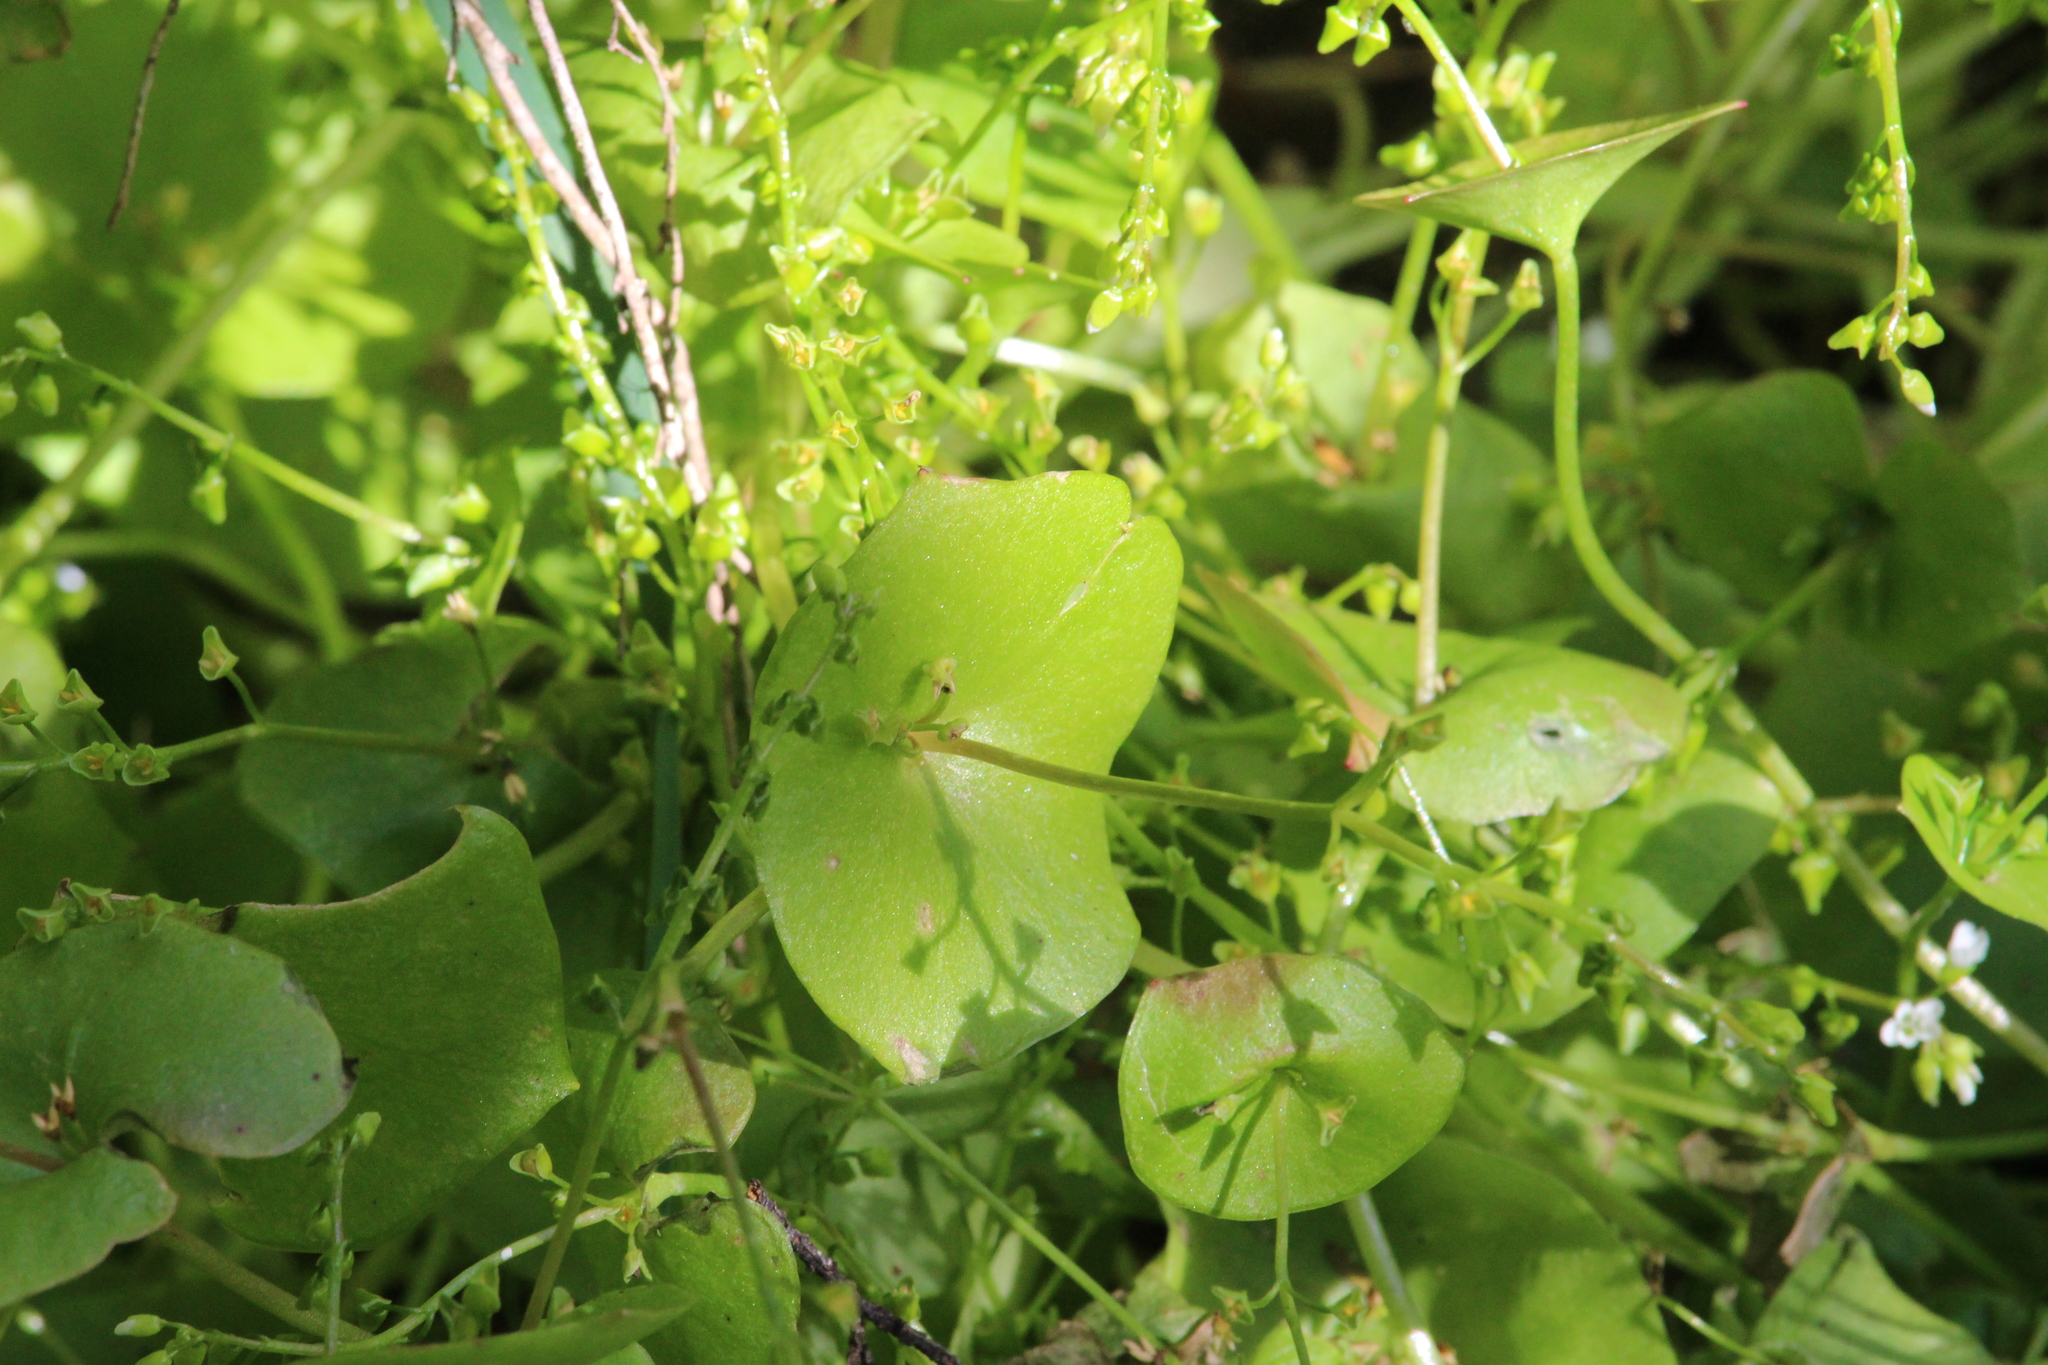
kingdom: Plantae
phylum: Tracheophyta
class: Magnoliopsida
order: Caryophyllales
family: Montiaceae
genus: Claytonia
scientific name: Claytonia perfoliata
